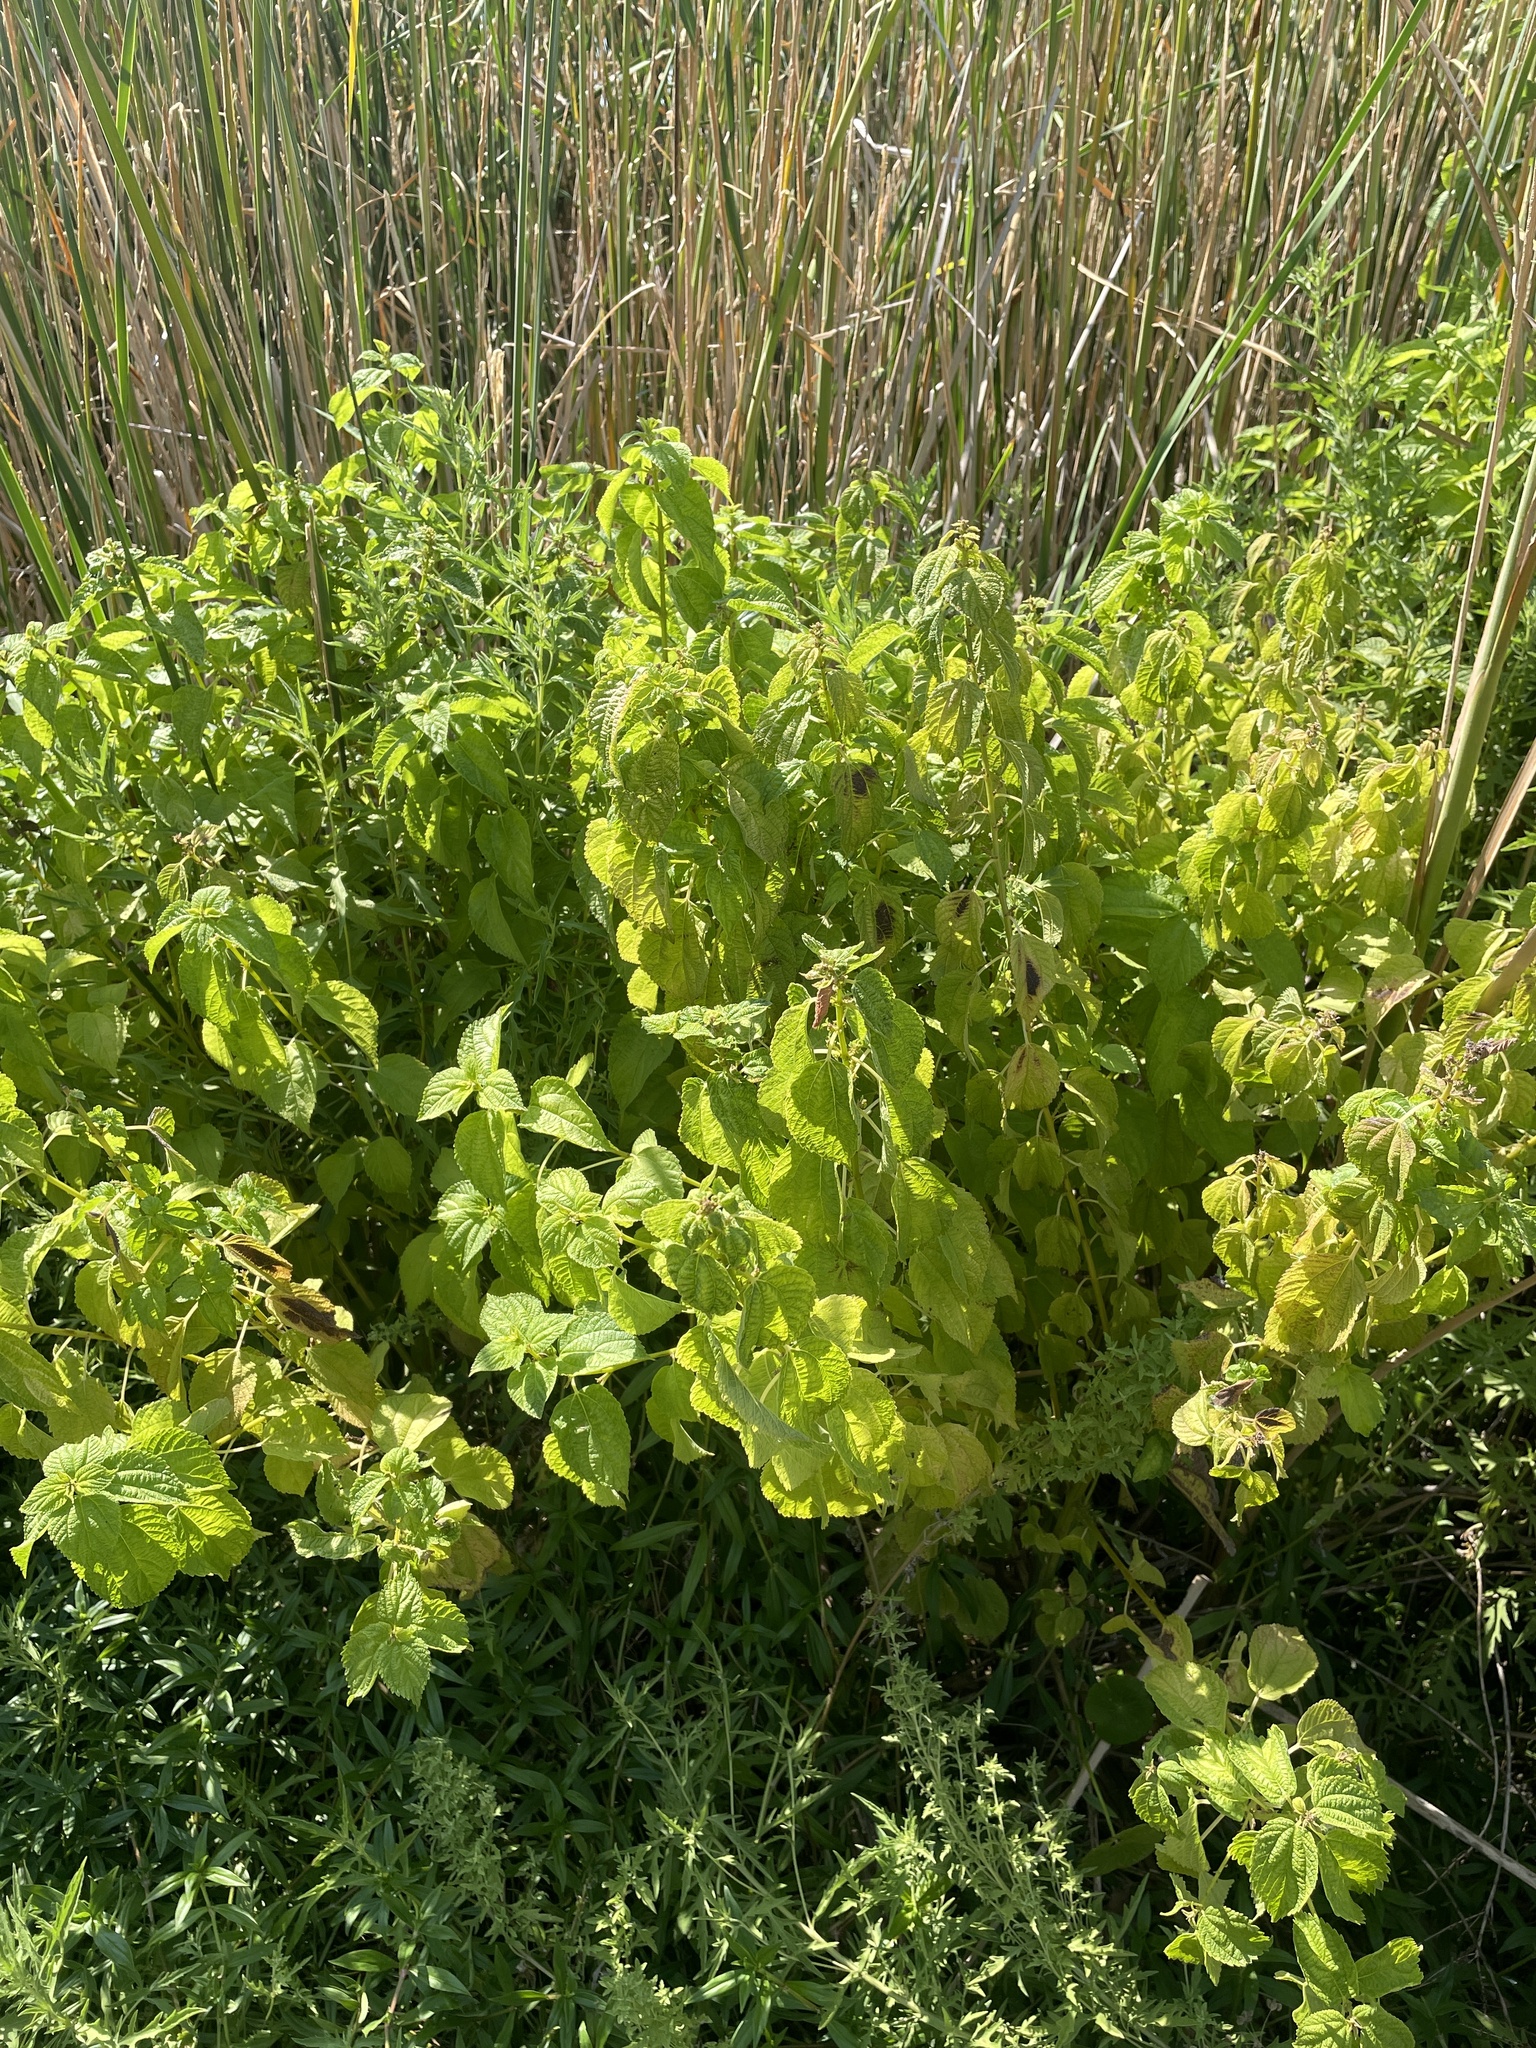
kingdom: Plantae
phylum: Tracheophyta
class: Magnoliopsida
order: Rosales
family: Urticaceae
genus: Boehmeria
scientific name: Boehmeria cylindrica
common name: Bog-hemp
